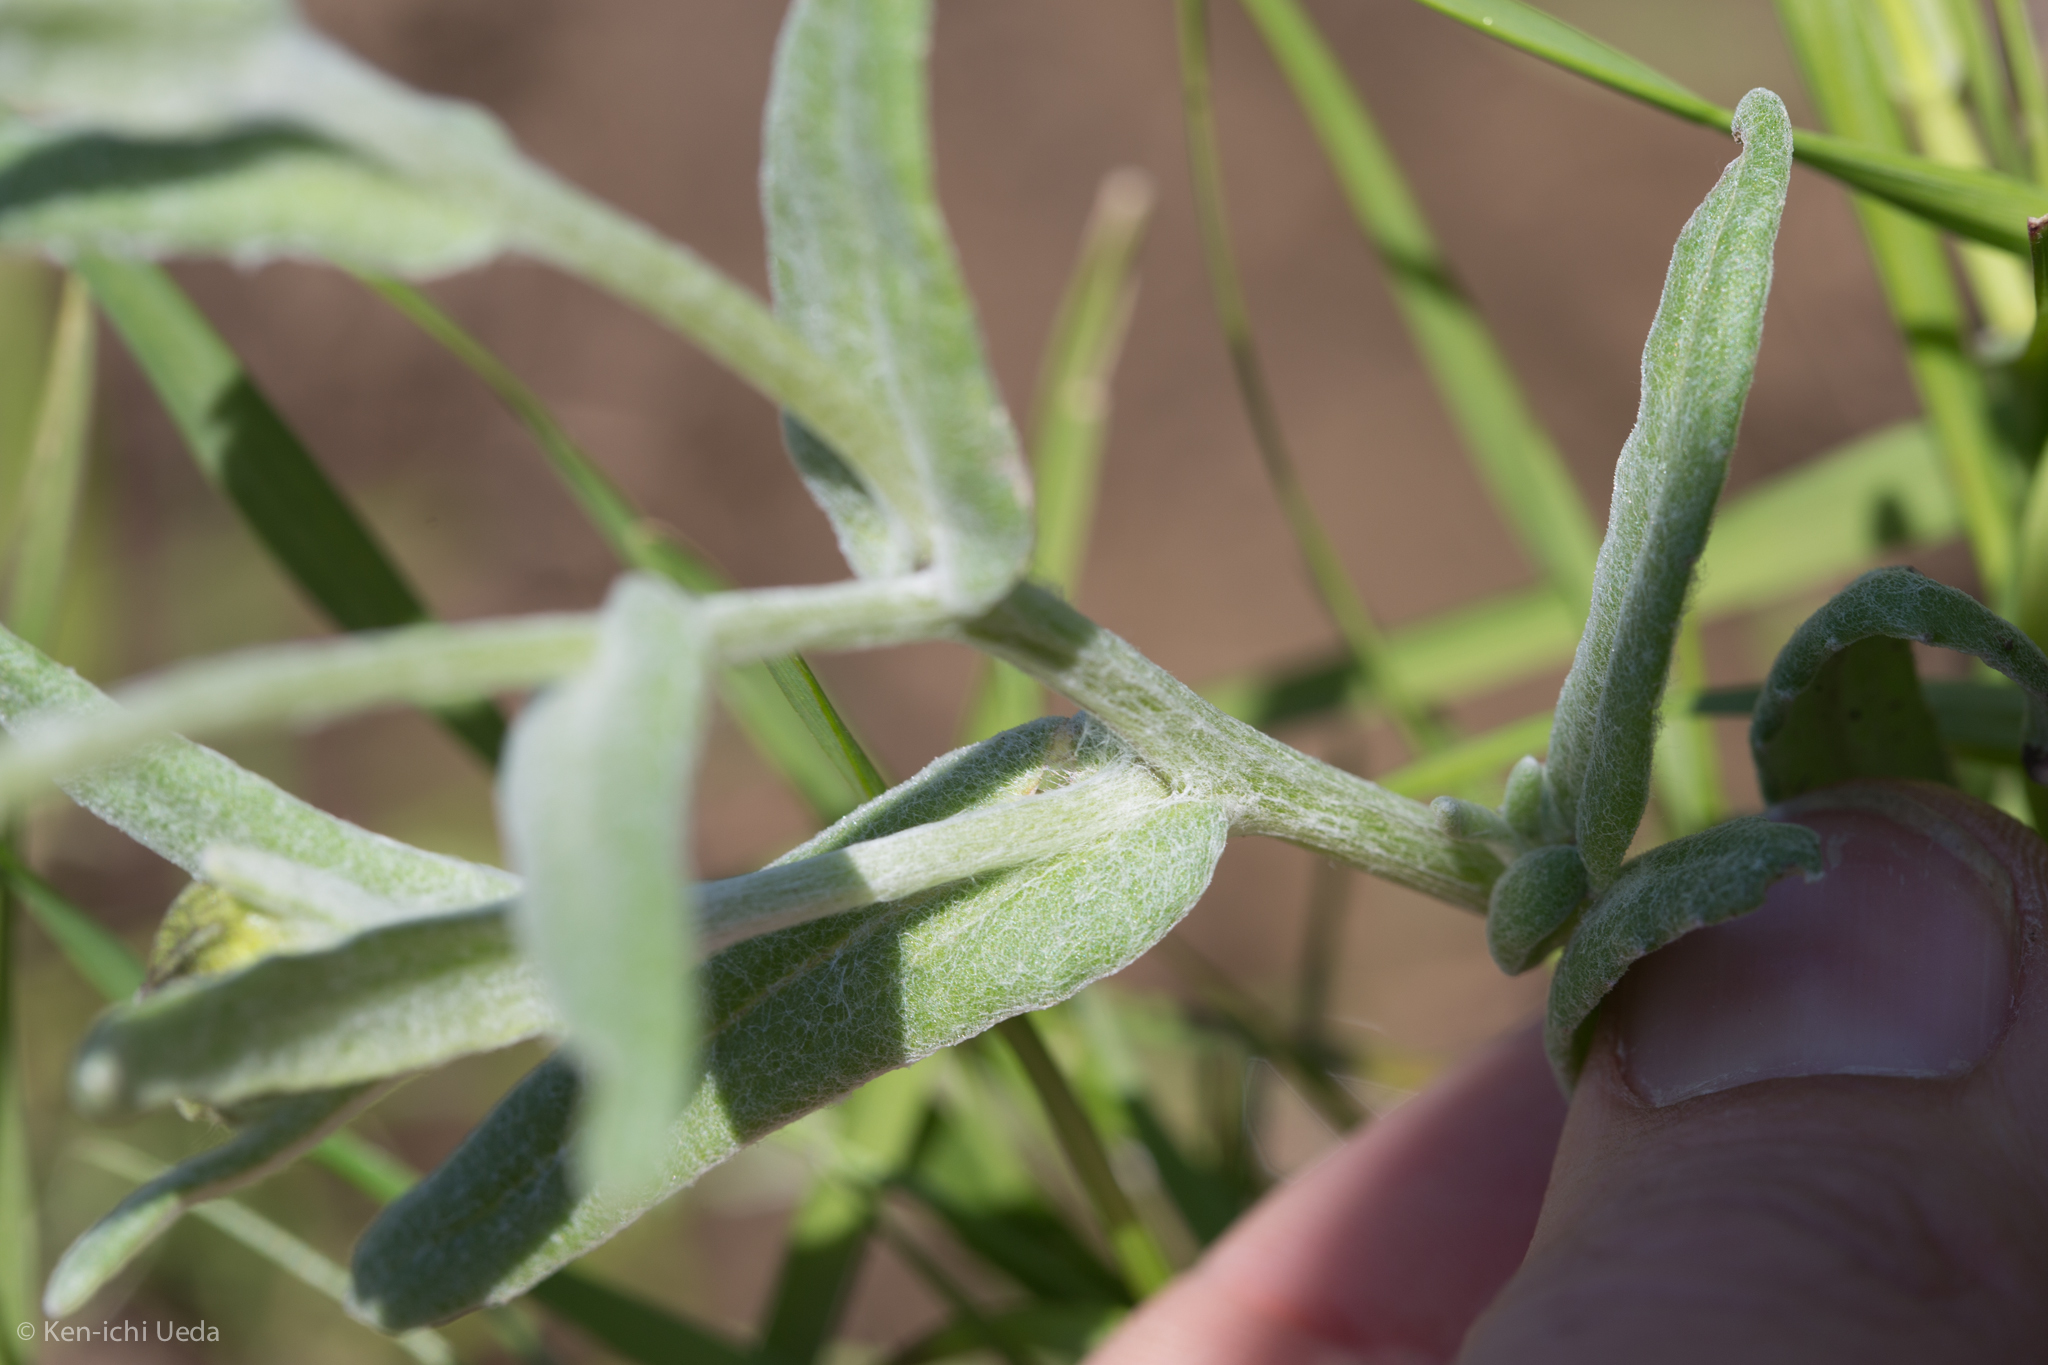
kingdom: Plantae
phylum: Tracheophyta
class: Magnoliopsida
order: Asterales
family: Asteraceae
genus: Monolopia
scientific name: Monolopia major
